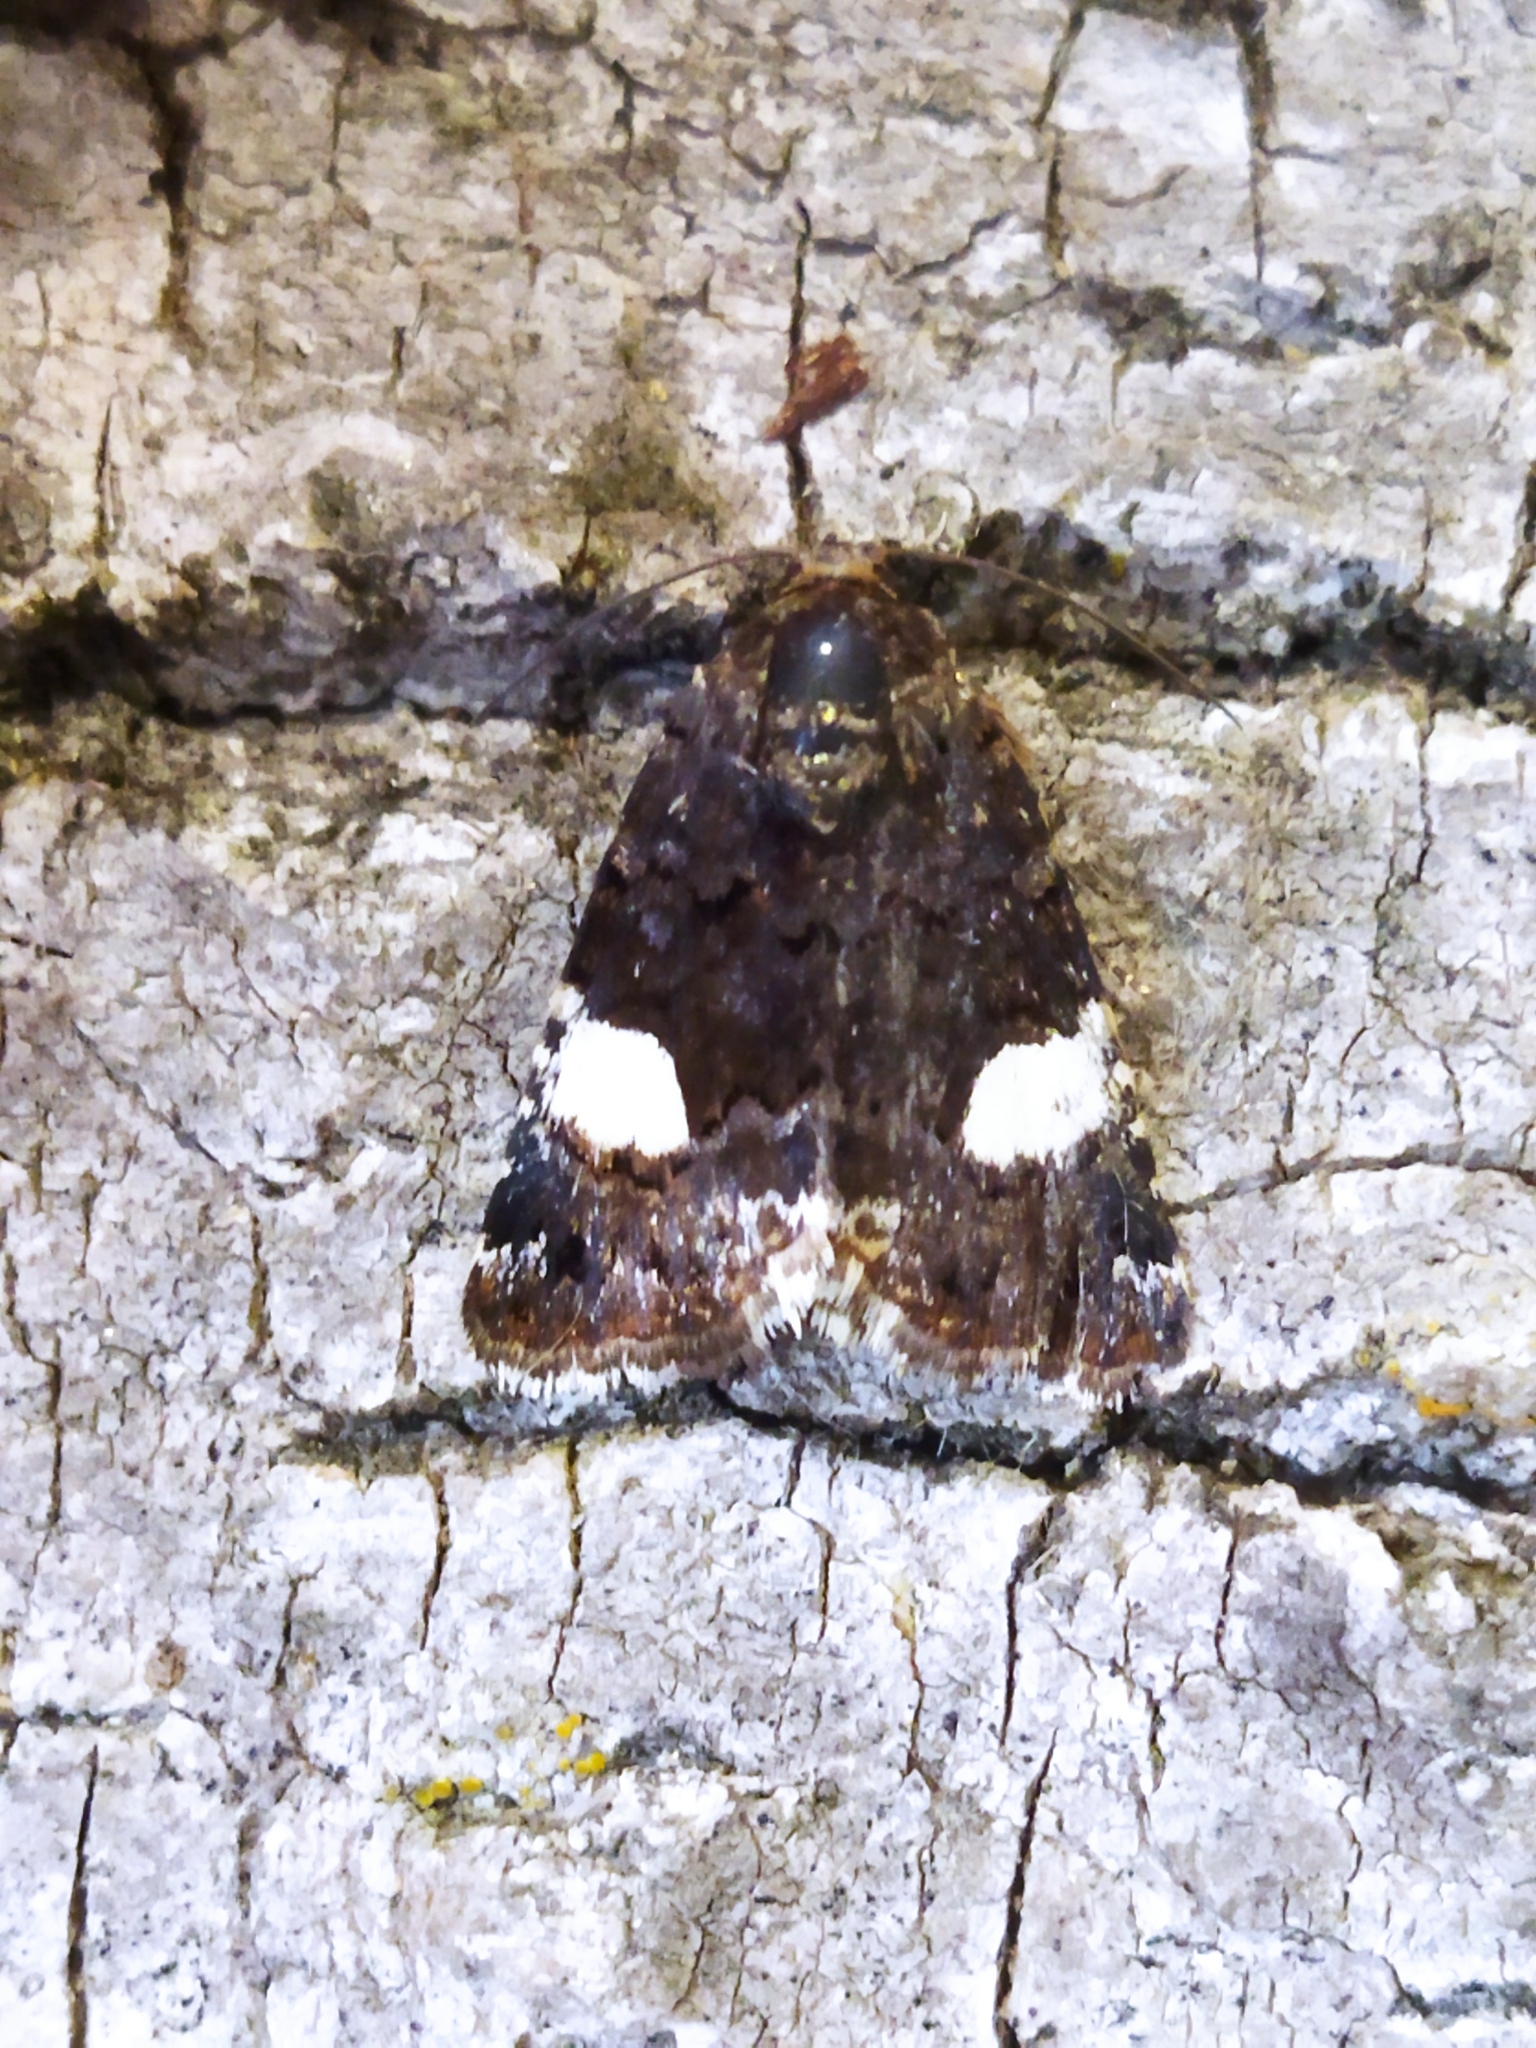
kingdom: Animalia
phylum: Arthropoda
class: Insecta
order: Lepidoptera
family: Erebidae
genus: Tyta
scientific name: Tyta luctuosa
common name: Four-spotted
